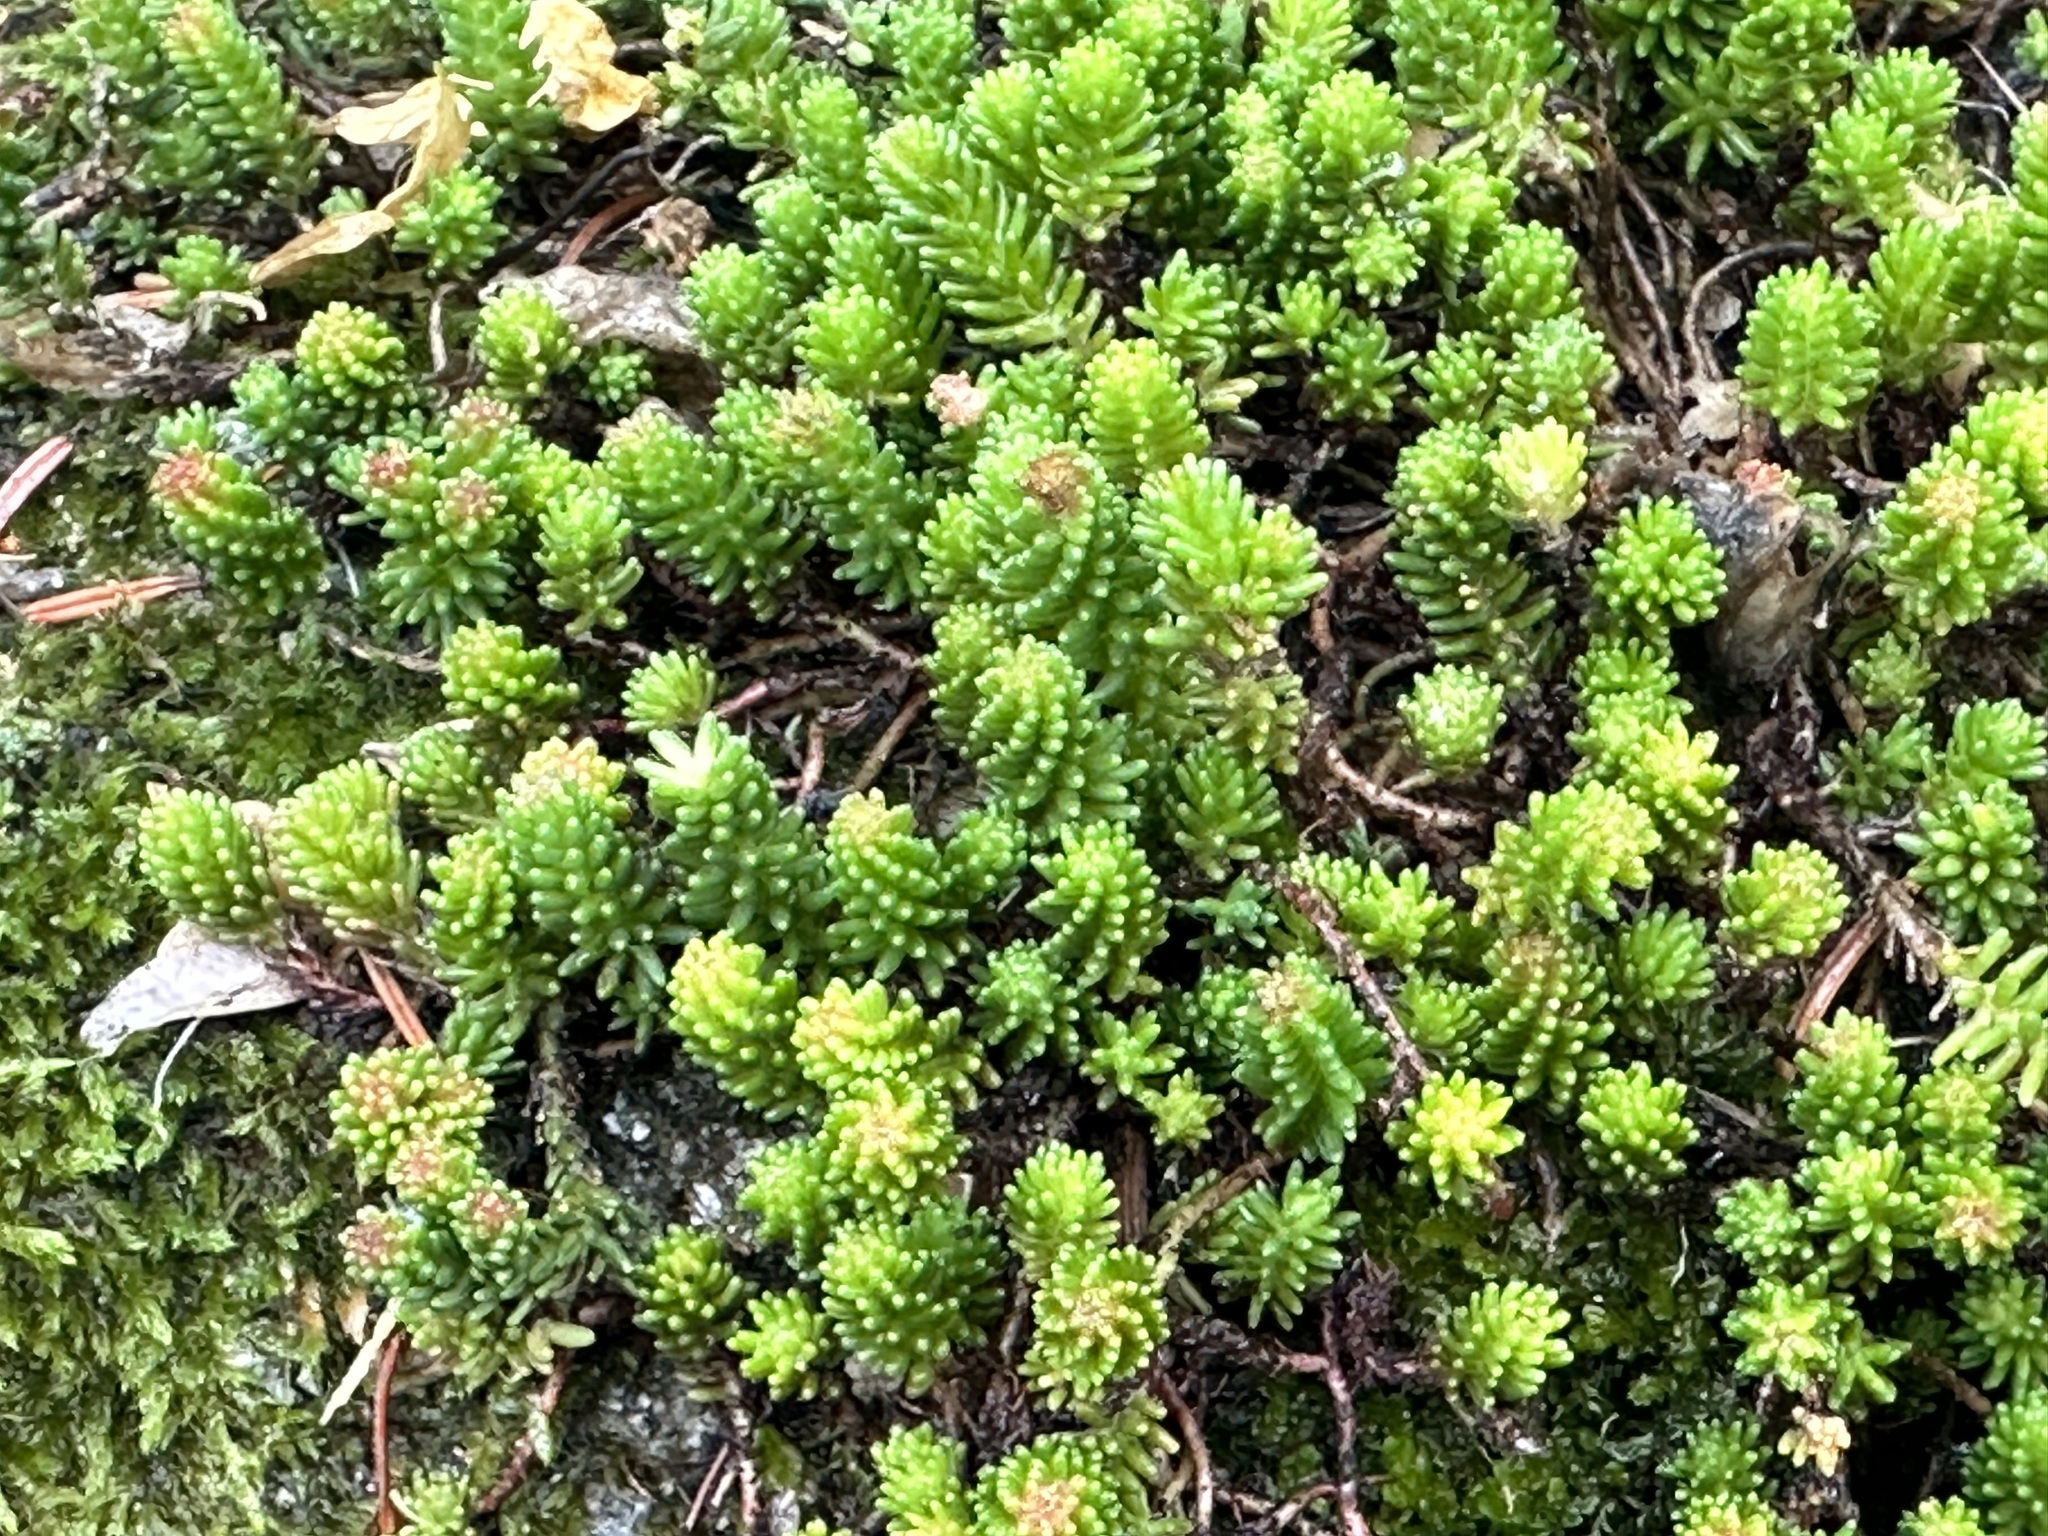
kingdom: Plantae
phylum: Tracheophyta
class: Magnoliopsida
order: Saxifragales
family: Crassulaceae
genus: Sedum
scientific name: Sedum sexangulare
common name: Tasteless stonecrop
